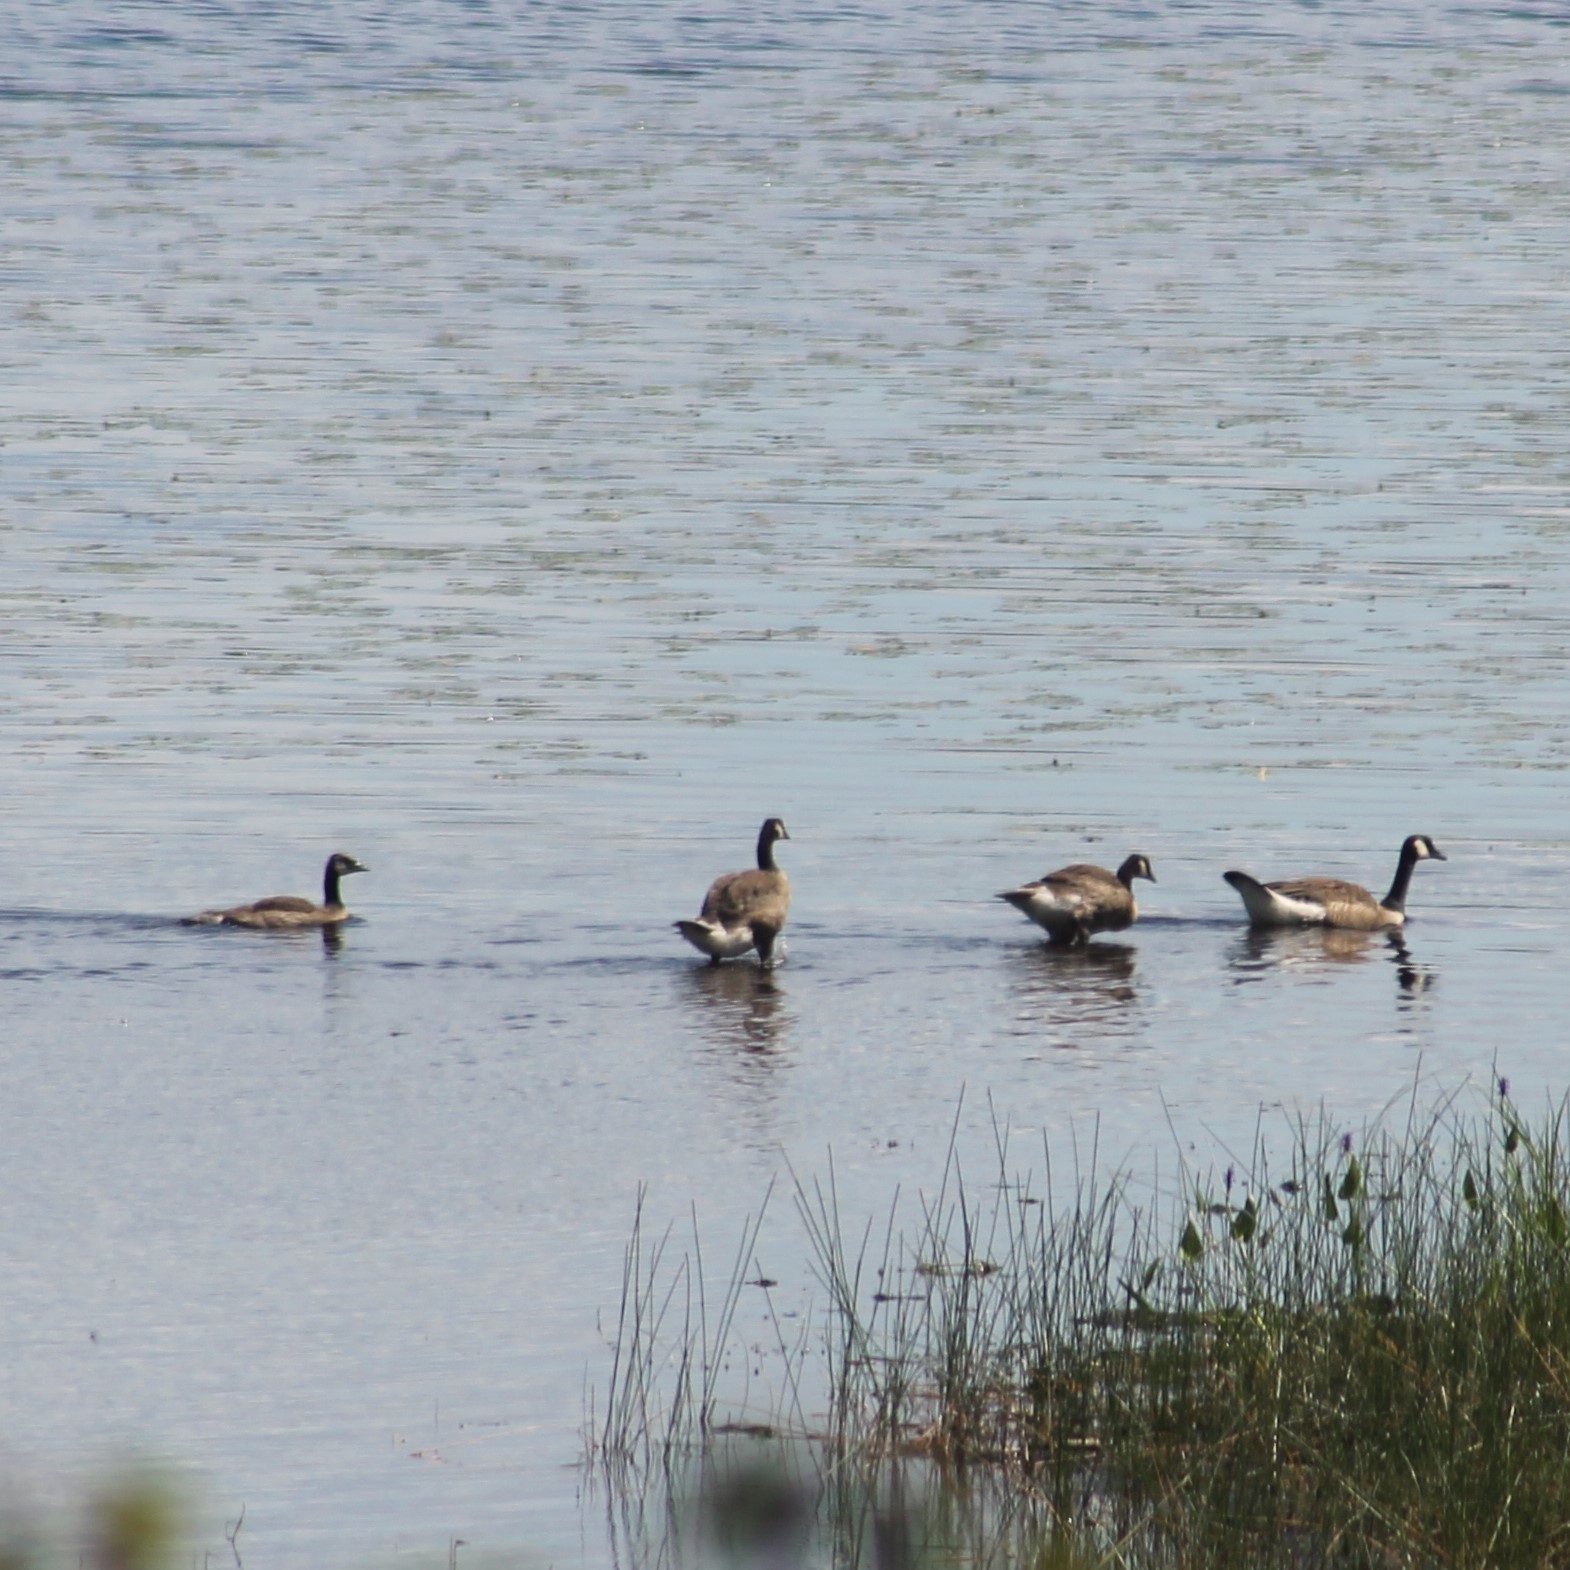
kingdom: Animalia
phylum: Chordata
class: Aves
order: Anseriformes
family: Anatidae
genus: Branta
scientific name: Branta canadensis
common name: Canada goose
